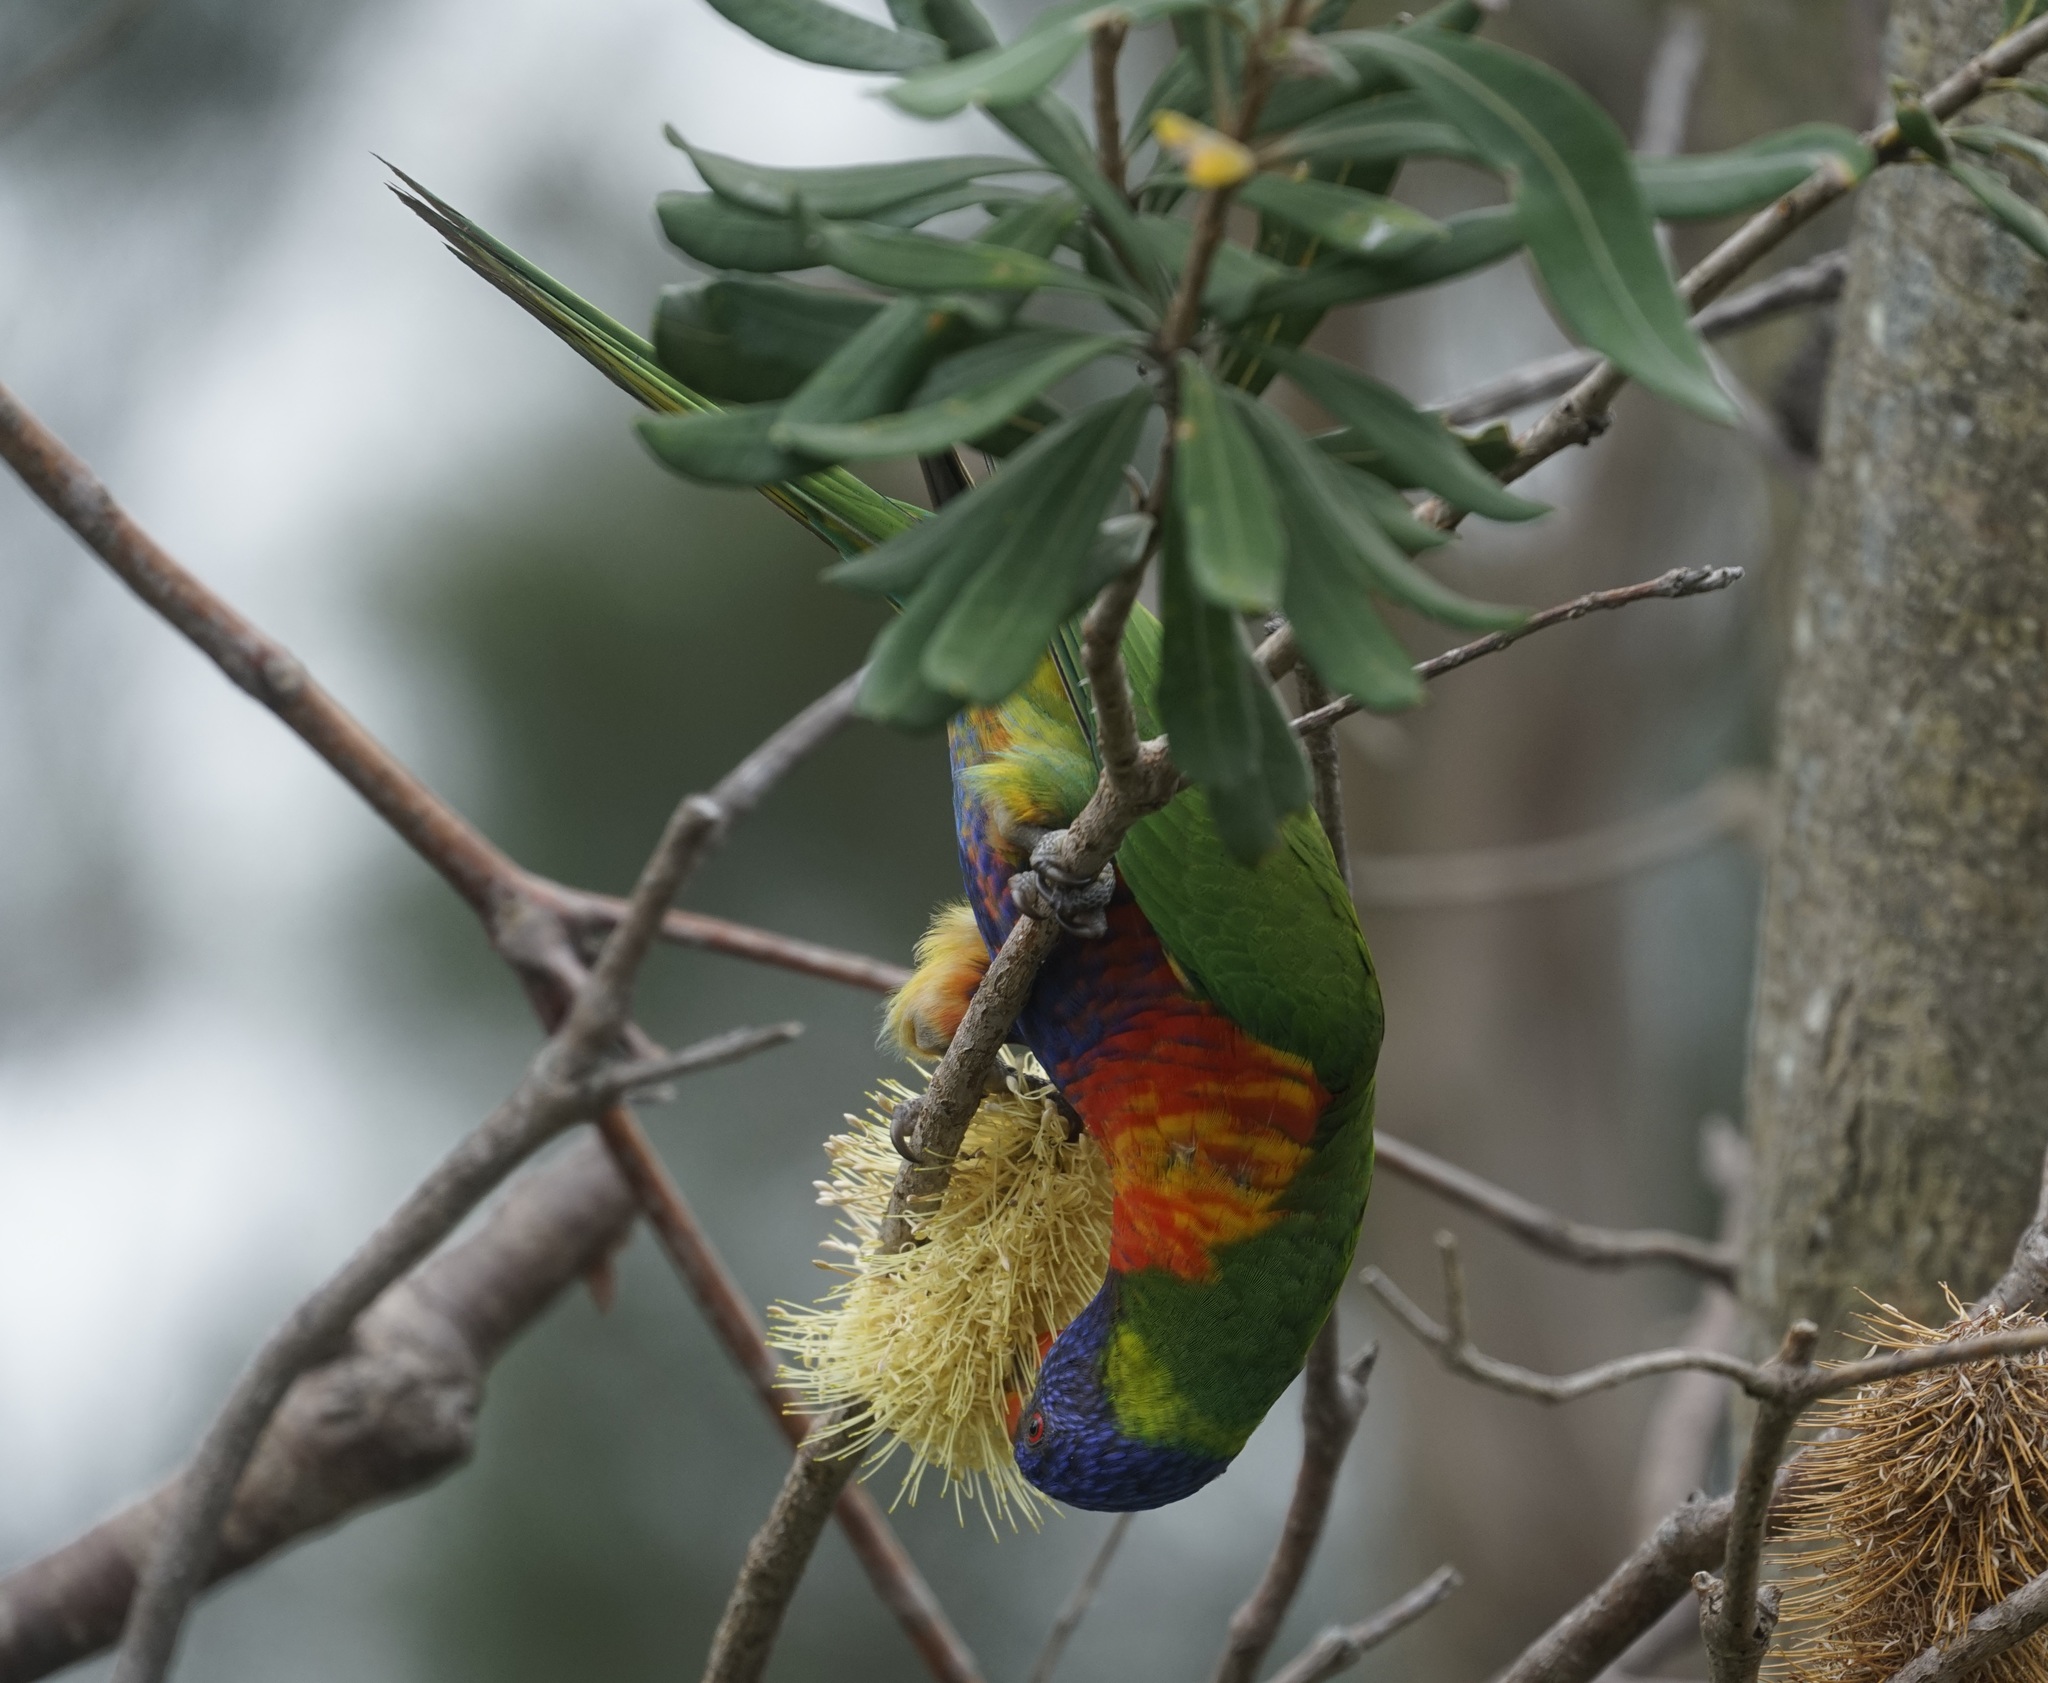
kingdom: Animalia
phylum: Chordata
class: Aves
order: Psittaciformes
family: Psittacidae
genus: Trichoglossus
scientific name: Trichoglossus haematodus
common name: Coconut lorikeet
